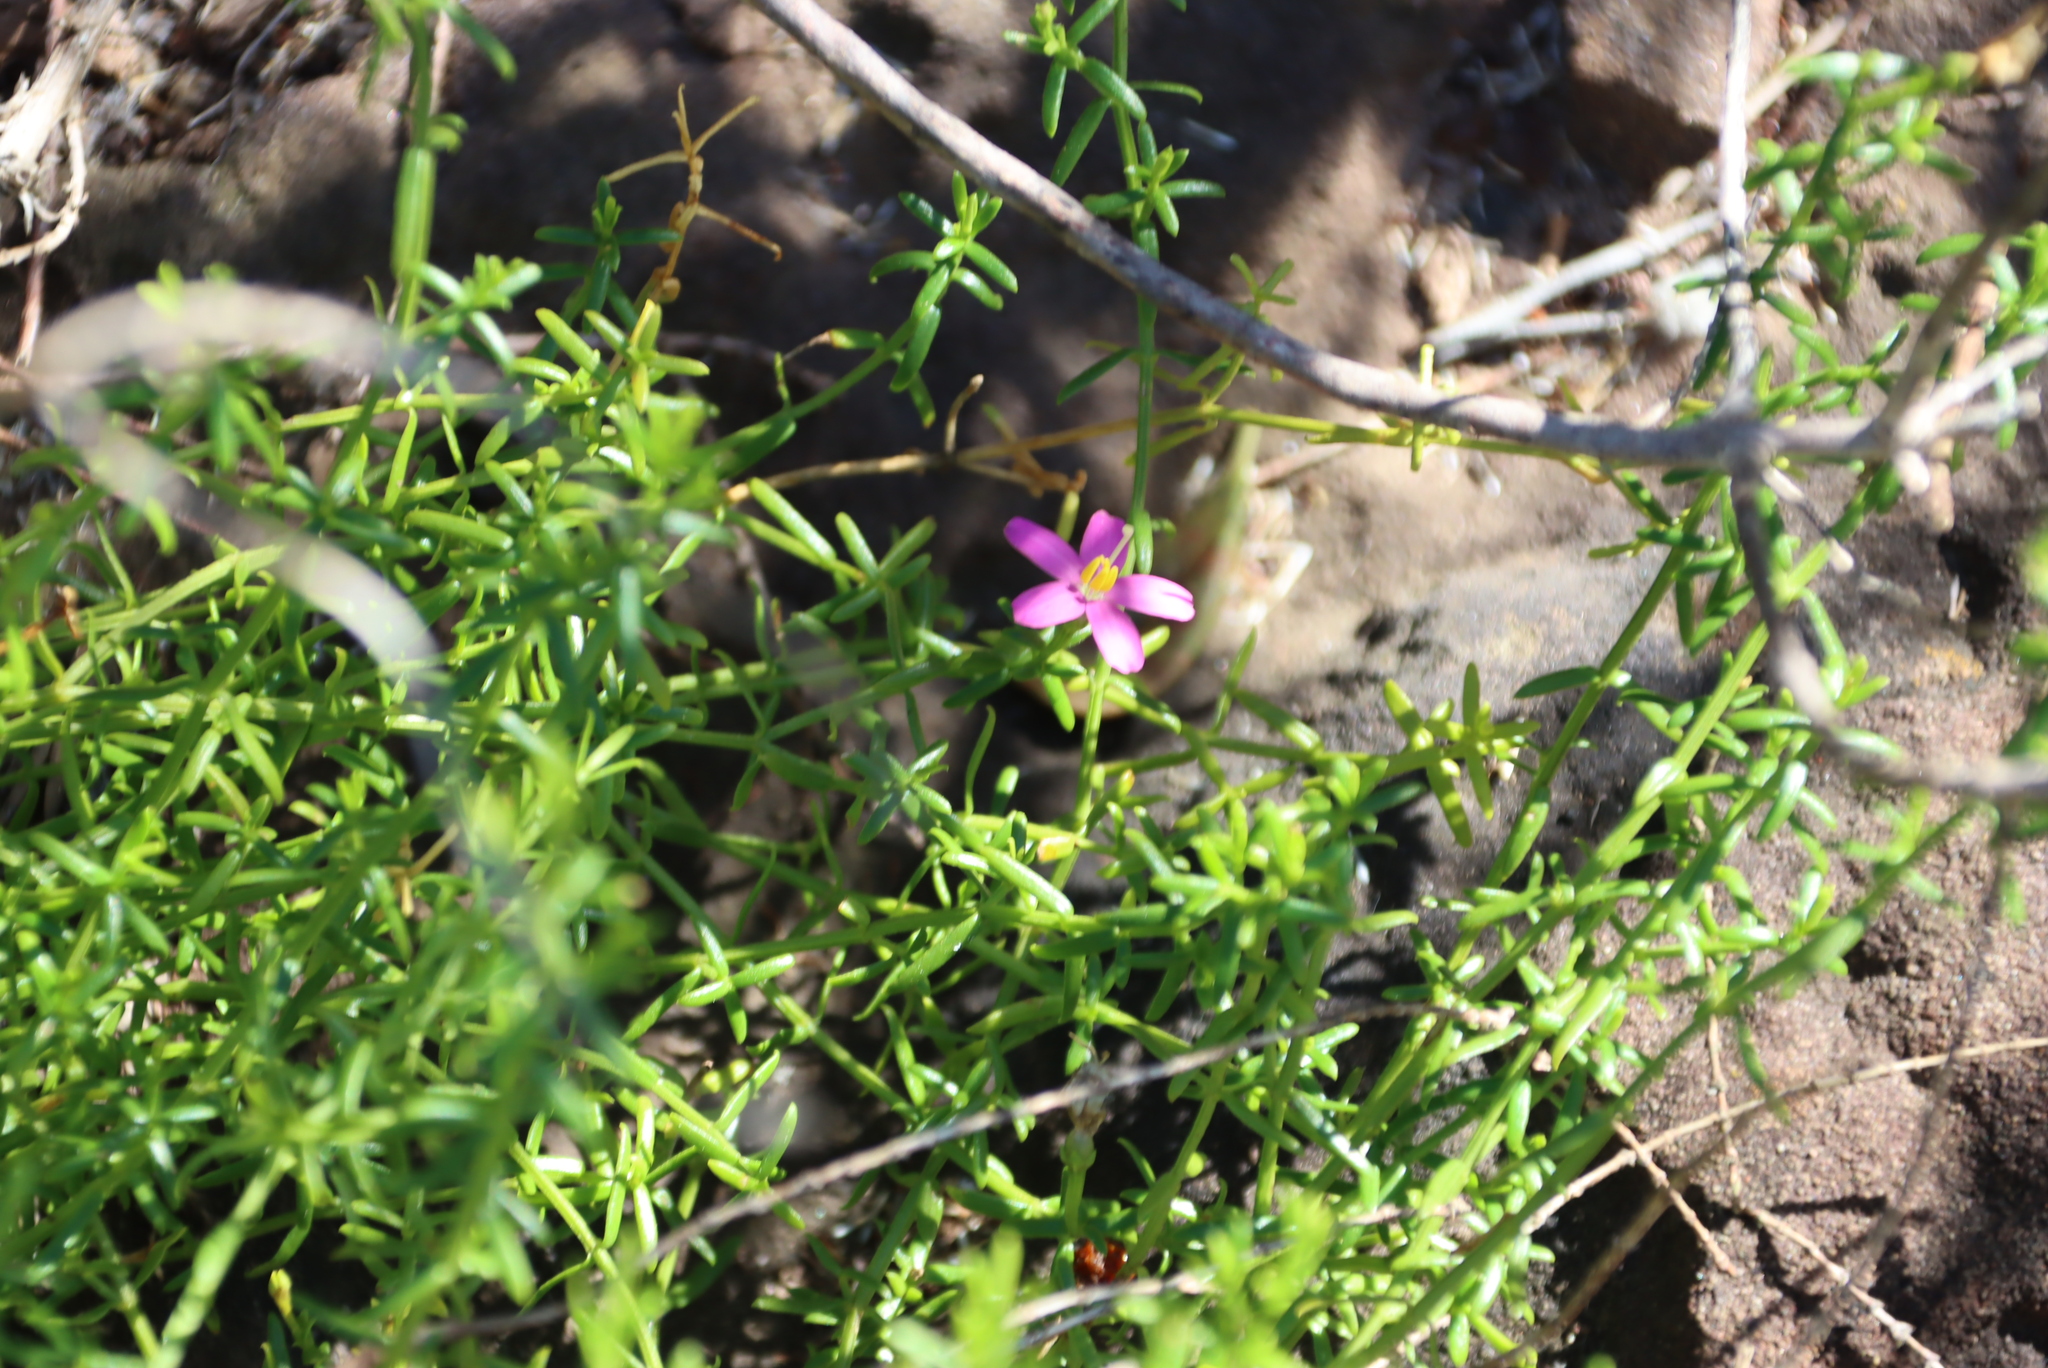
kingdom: Plantae
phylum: Tracheophyta
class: Magnoliopsida
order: Gentianales
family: Gentianaceae
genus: Chironia
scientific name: Chironia baccifera
